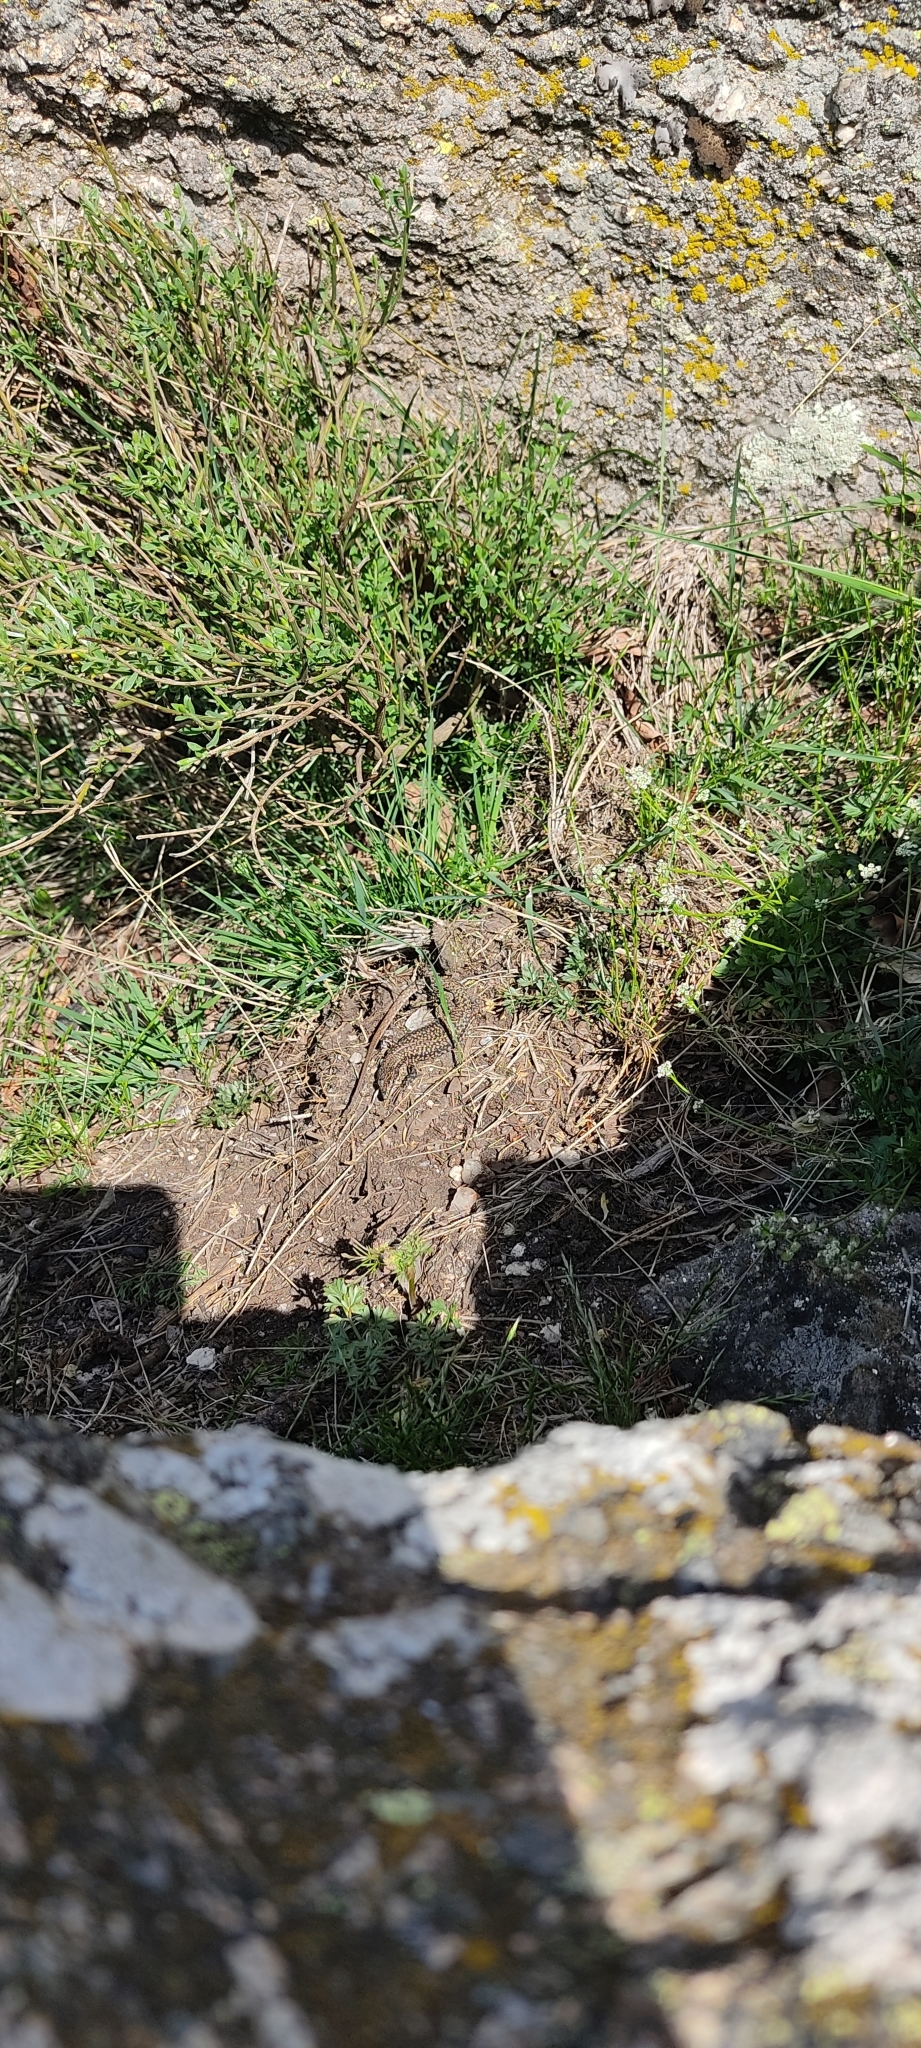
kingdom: Animalia
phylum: Chordata
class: Squamata
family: Lacertidae
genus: Podarcis
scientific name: Podarcis liolepis
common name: Catalonian wall lizard
